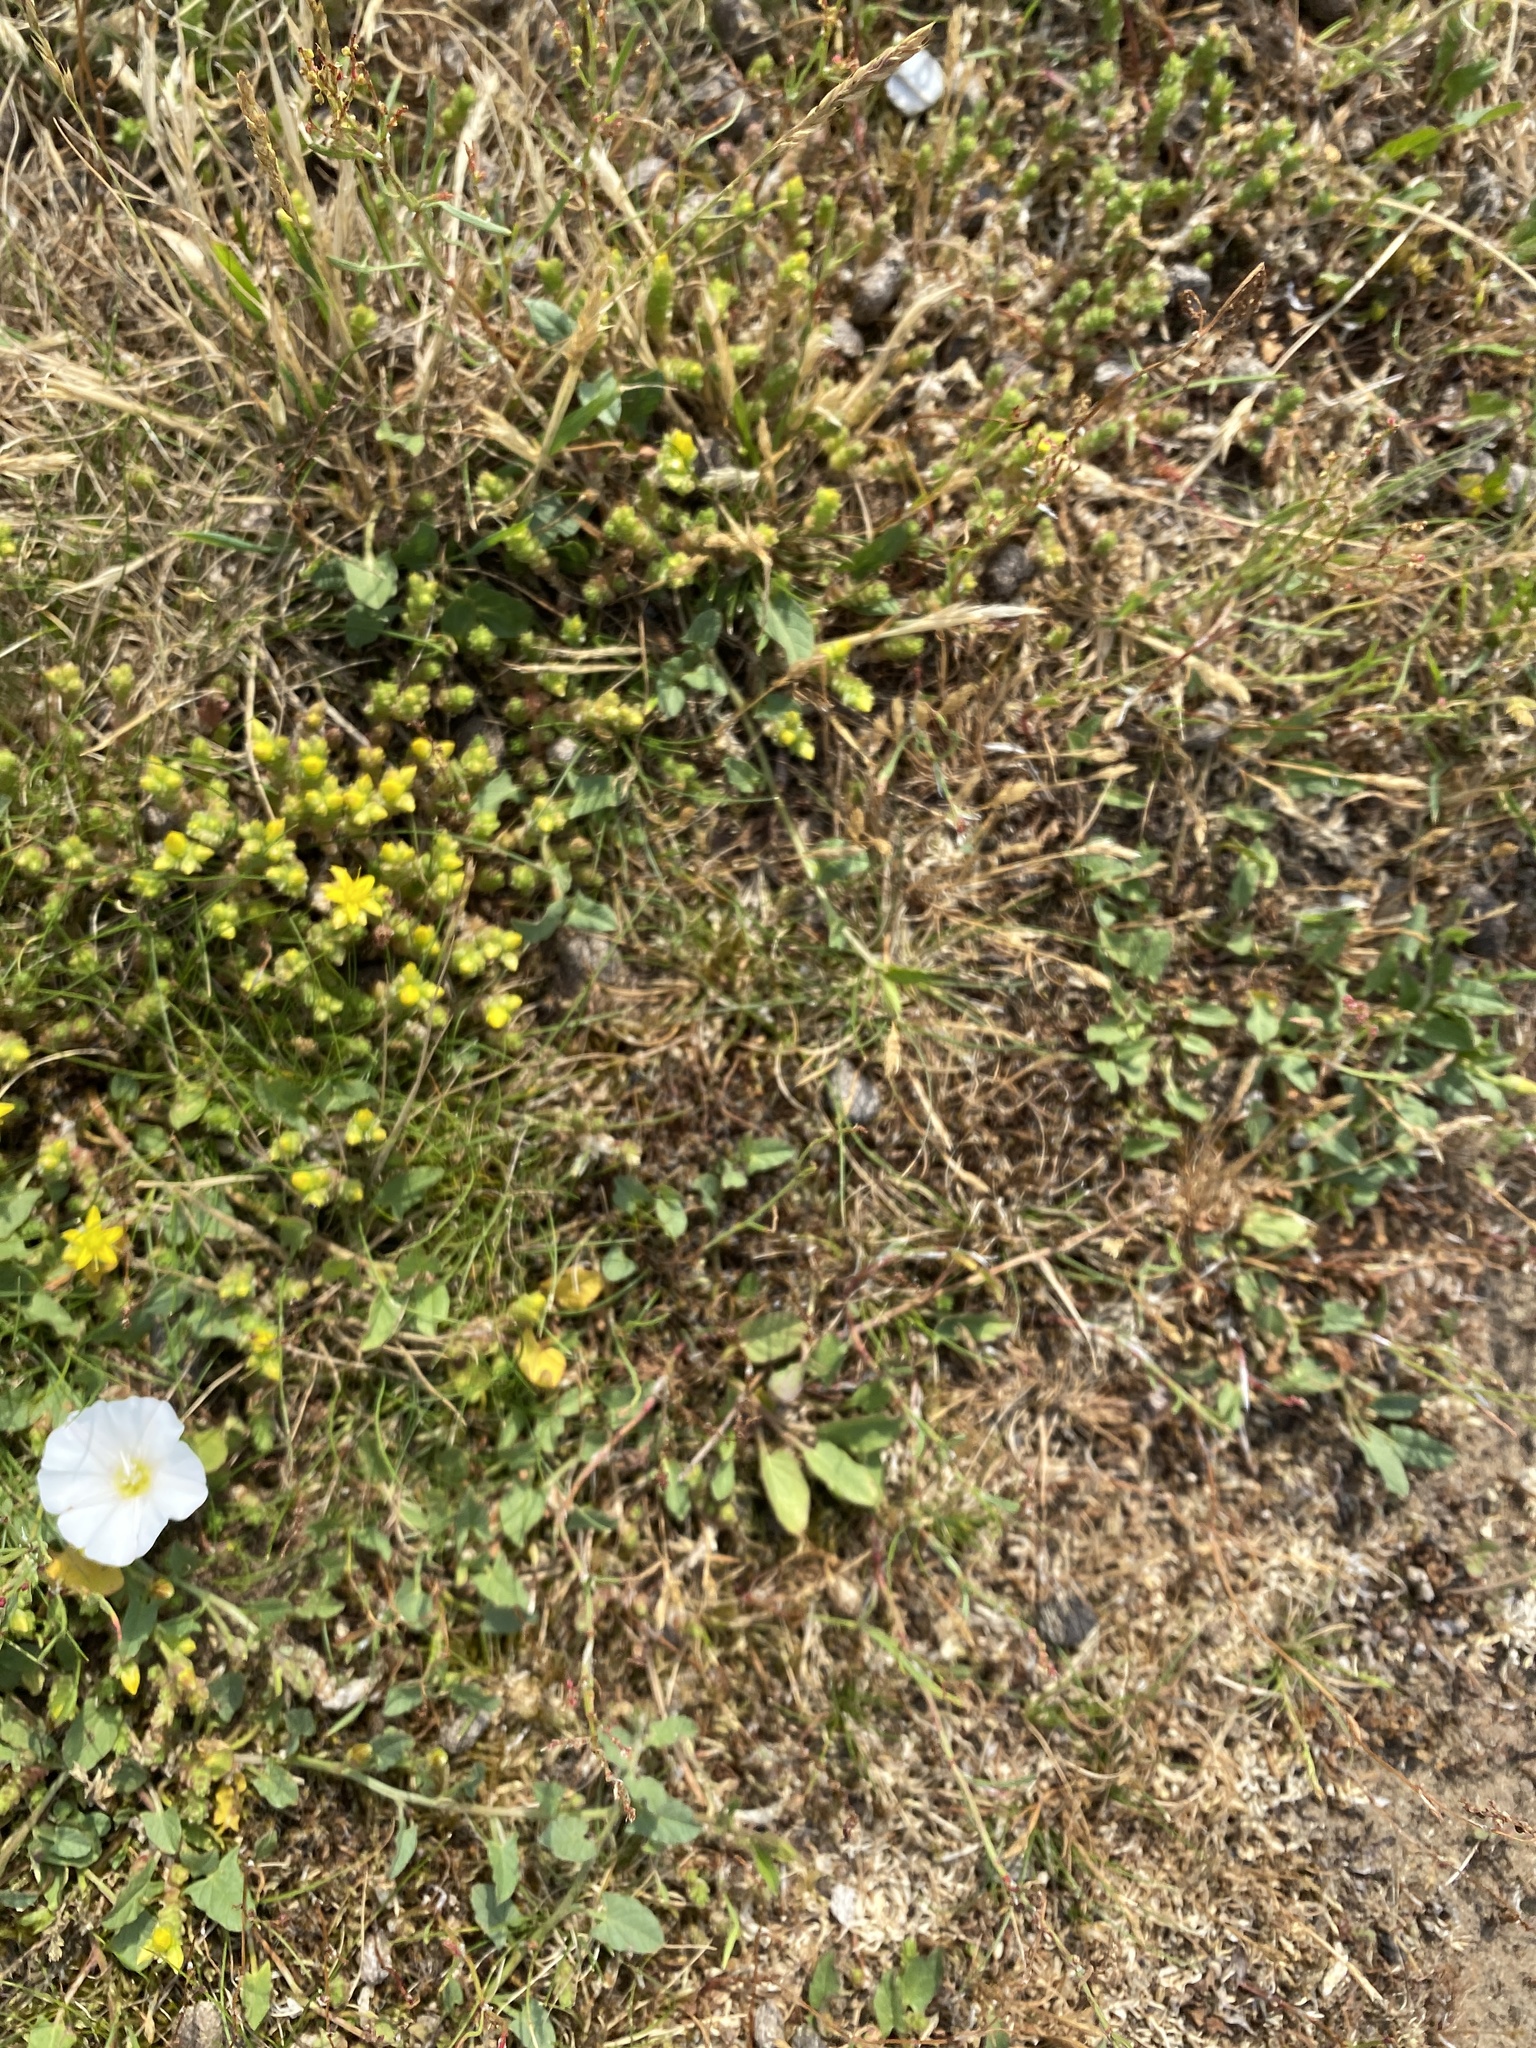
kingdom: Plantae
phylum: Tracheophyta
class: Magnoliopsida
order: Saxifragales
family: Crassulaceae
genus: Sedum
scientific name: Sedum acre
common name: Biting stonecrop
